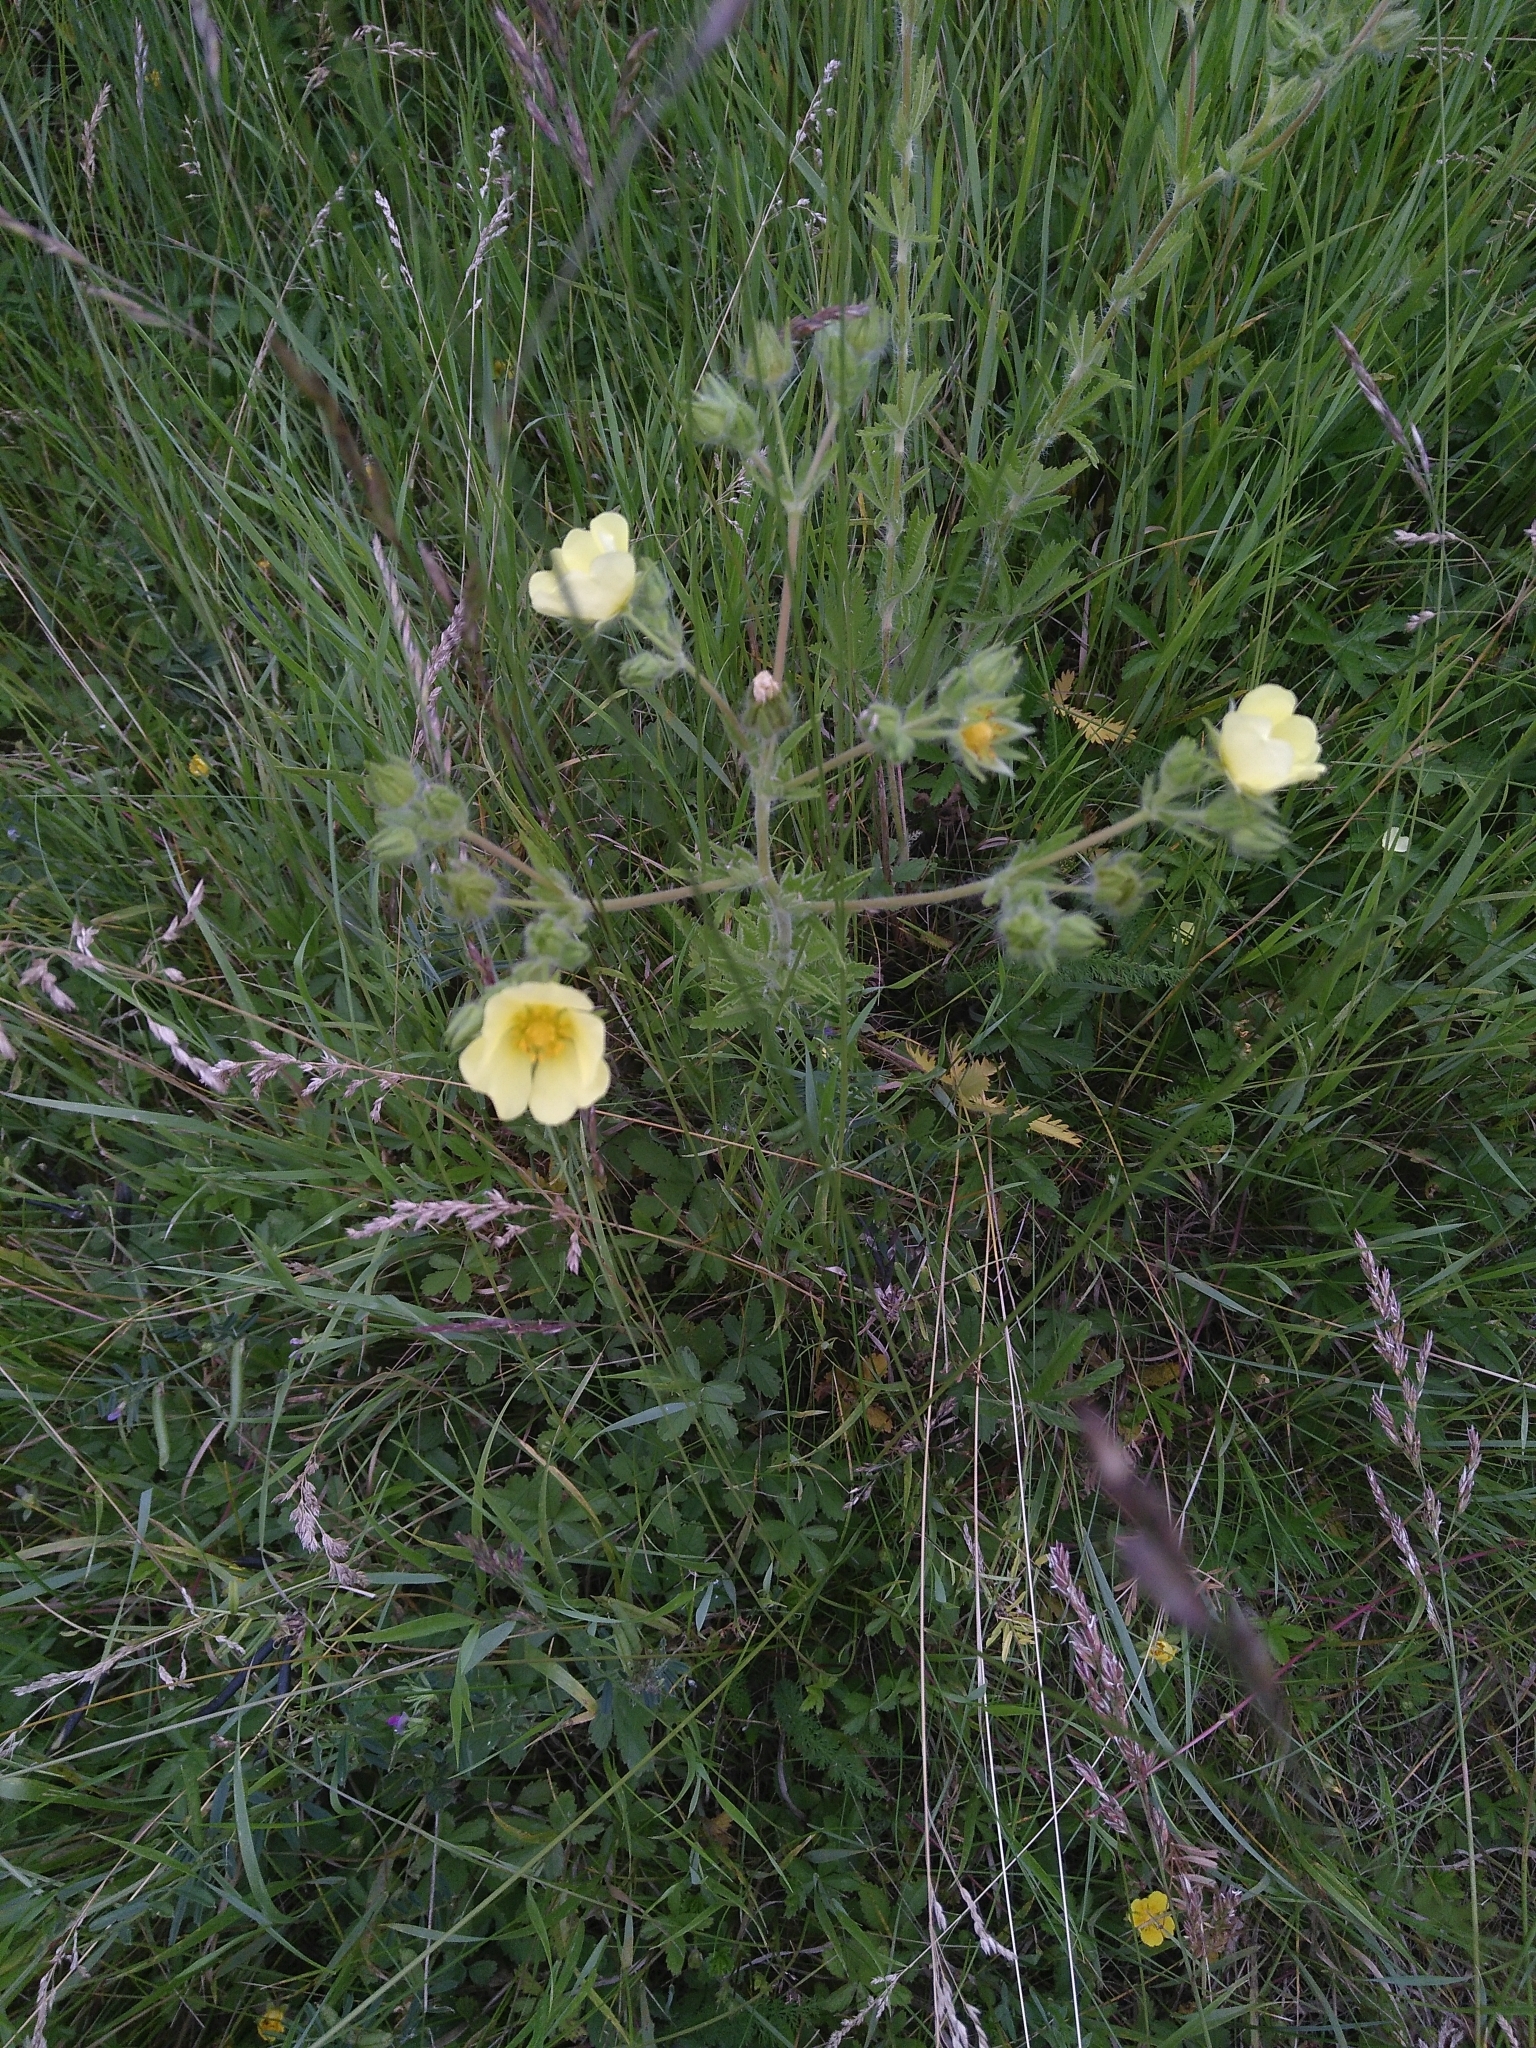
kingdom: Plantae
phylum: Tracheophyta
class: Magnoliopsida
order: Rosales
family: Rosaceae
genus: Potentilla
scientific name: Potentilla recta
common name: Sulphur cinquefoil
